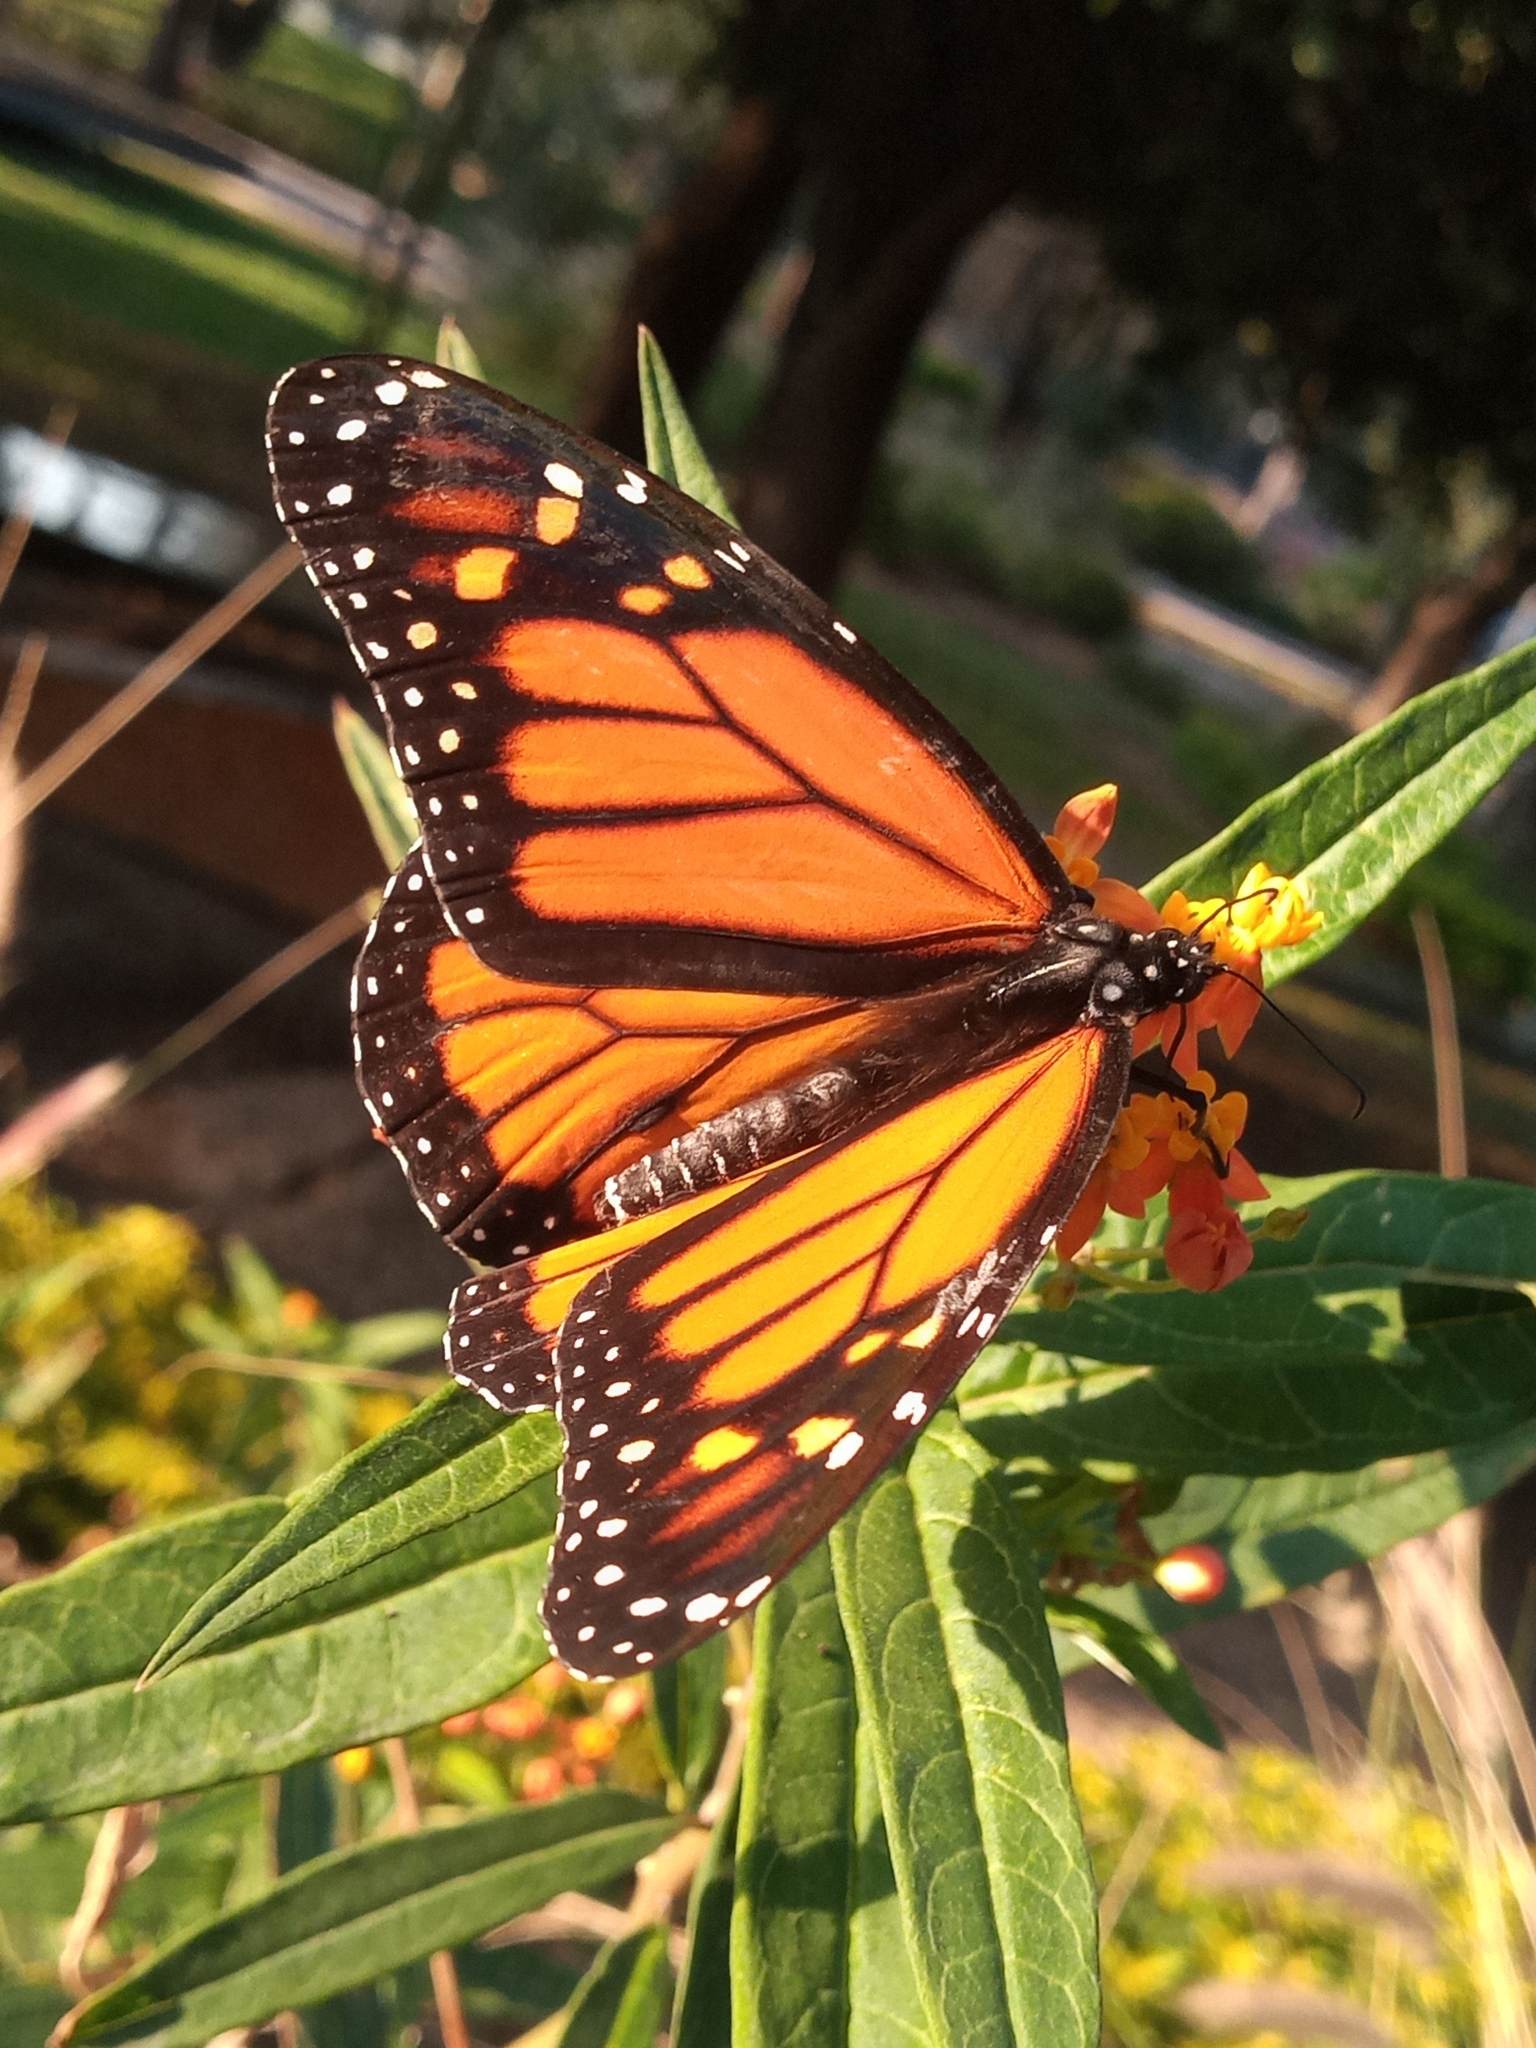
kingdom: Animalia
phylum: Arthropoda
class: Insecta
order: Lepidoptera
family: Nymphalidae
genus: Danaus
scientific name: Danaus plexippus
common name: Monarch
